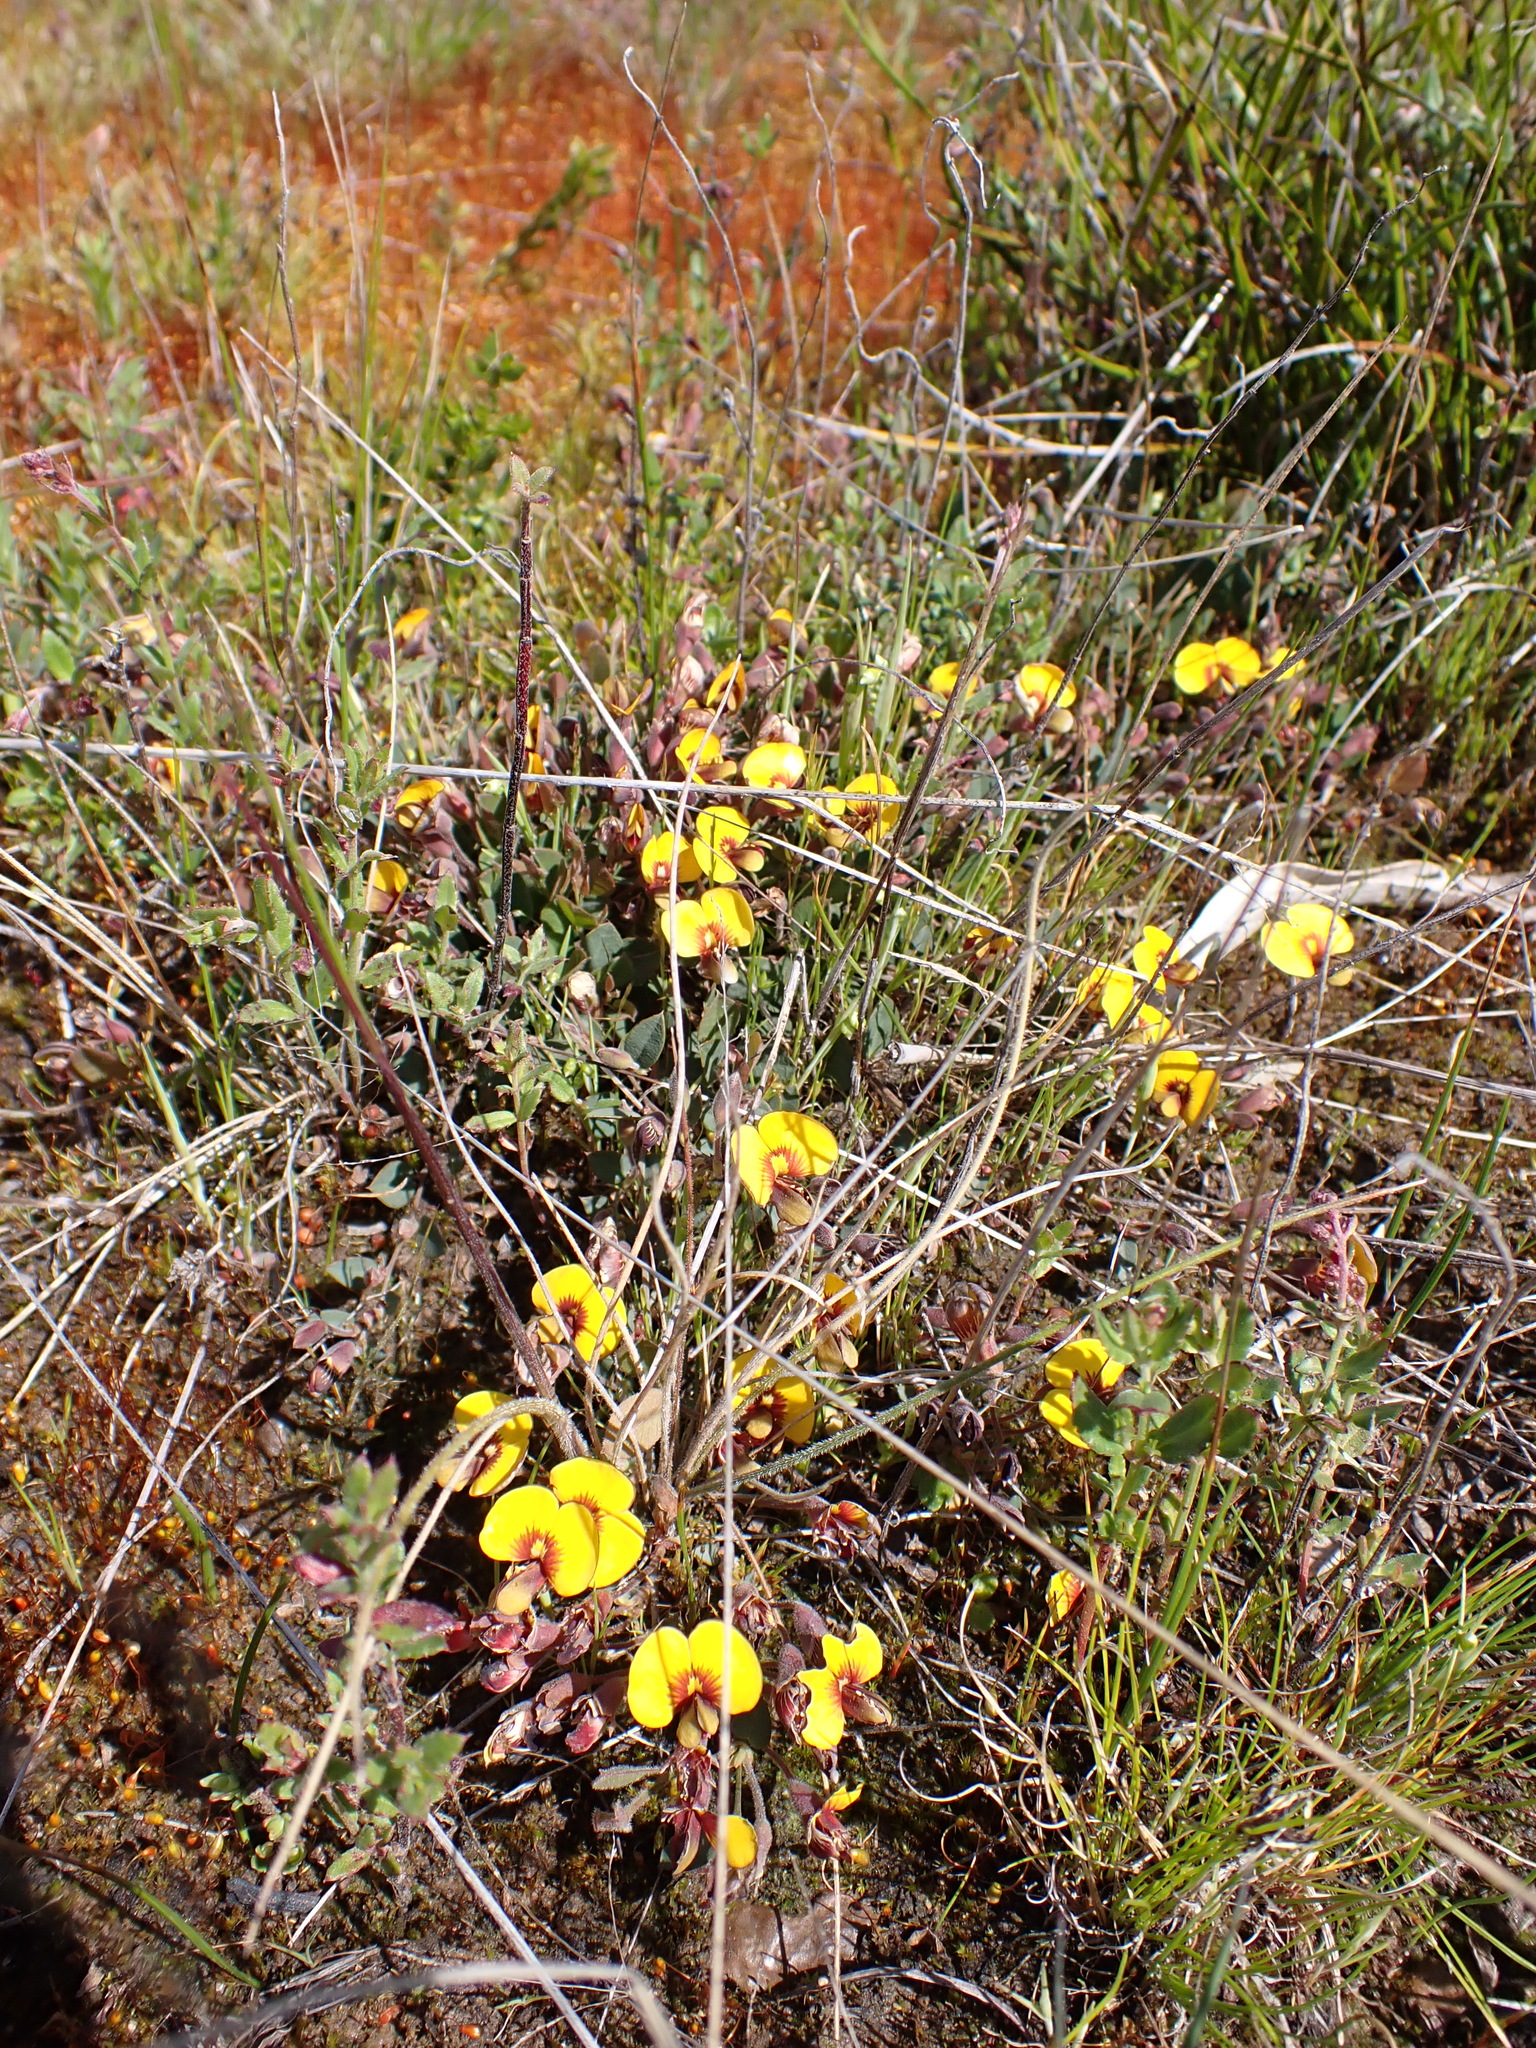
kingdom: Plantae
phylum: Tracheophyta
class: Magnoliopsida
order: Fabales
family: Fabaceae
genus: Bossiaea
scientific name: Bossiaea prostrata
